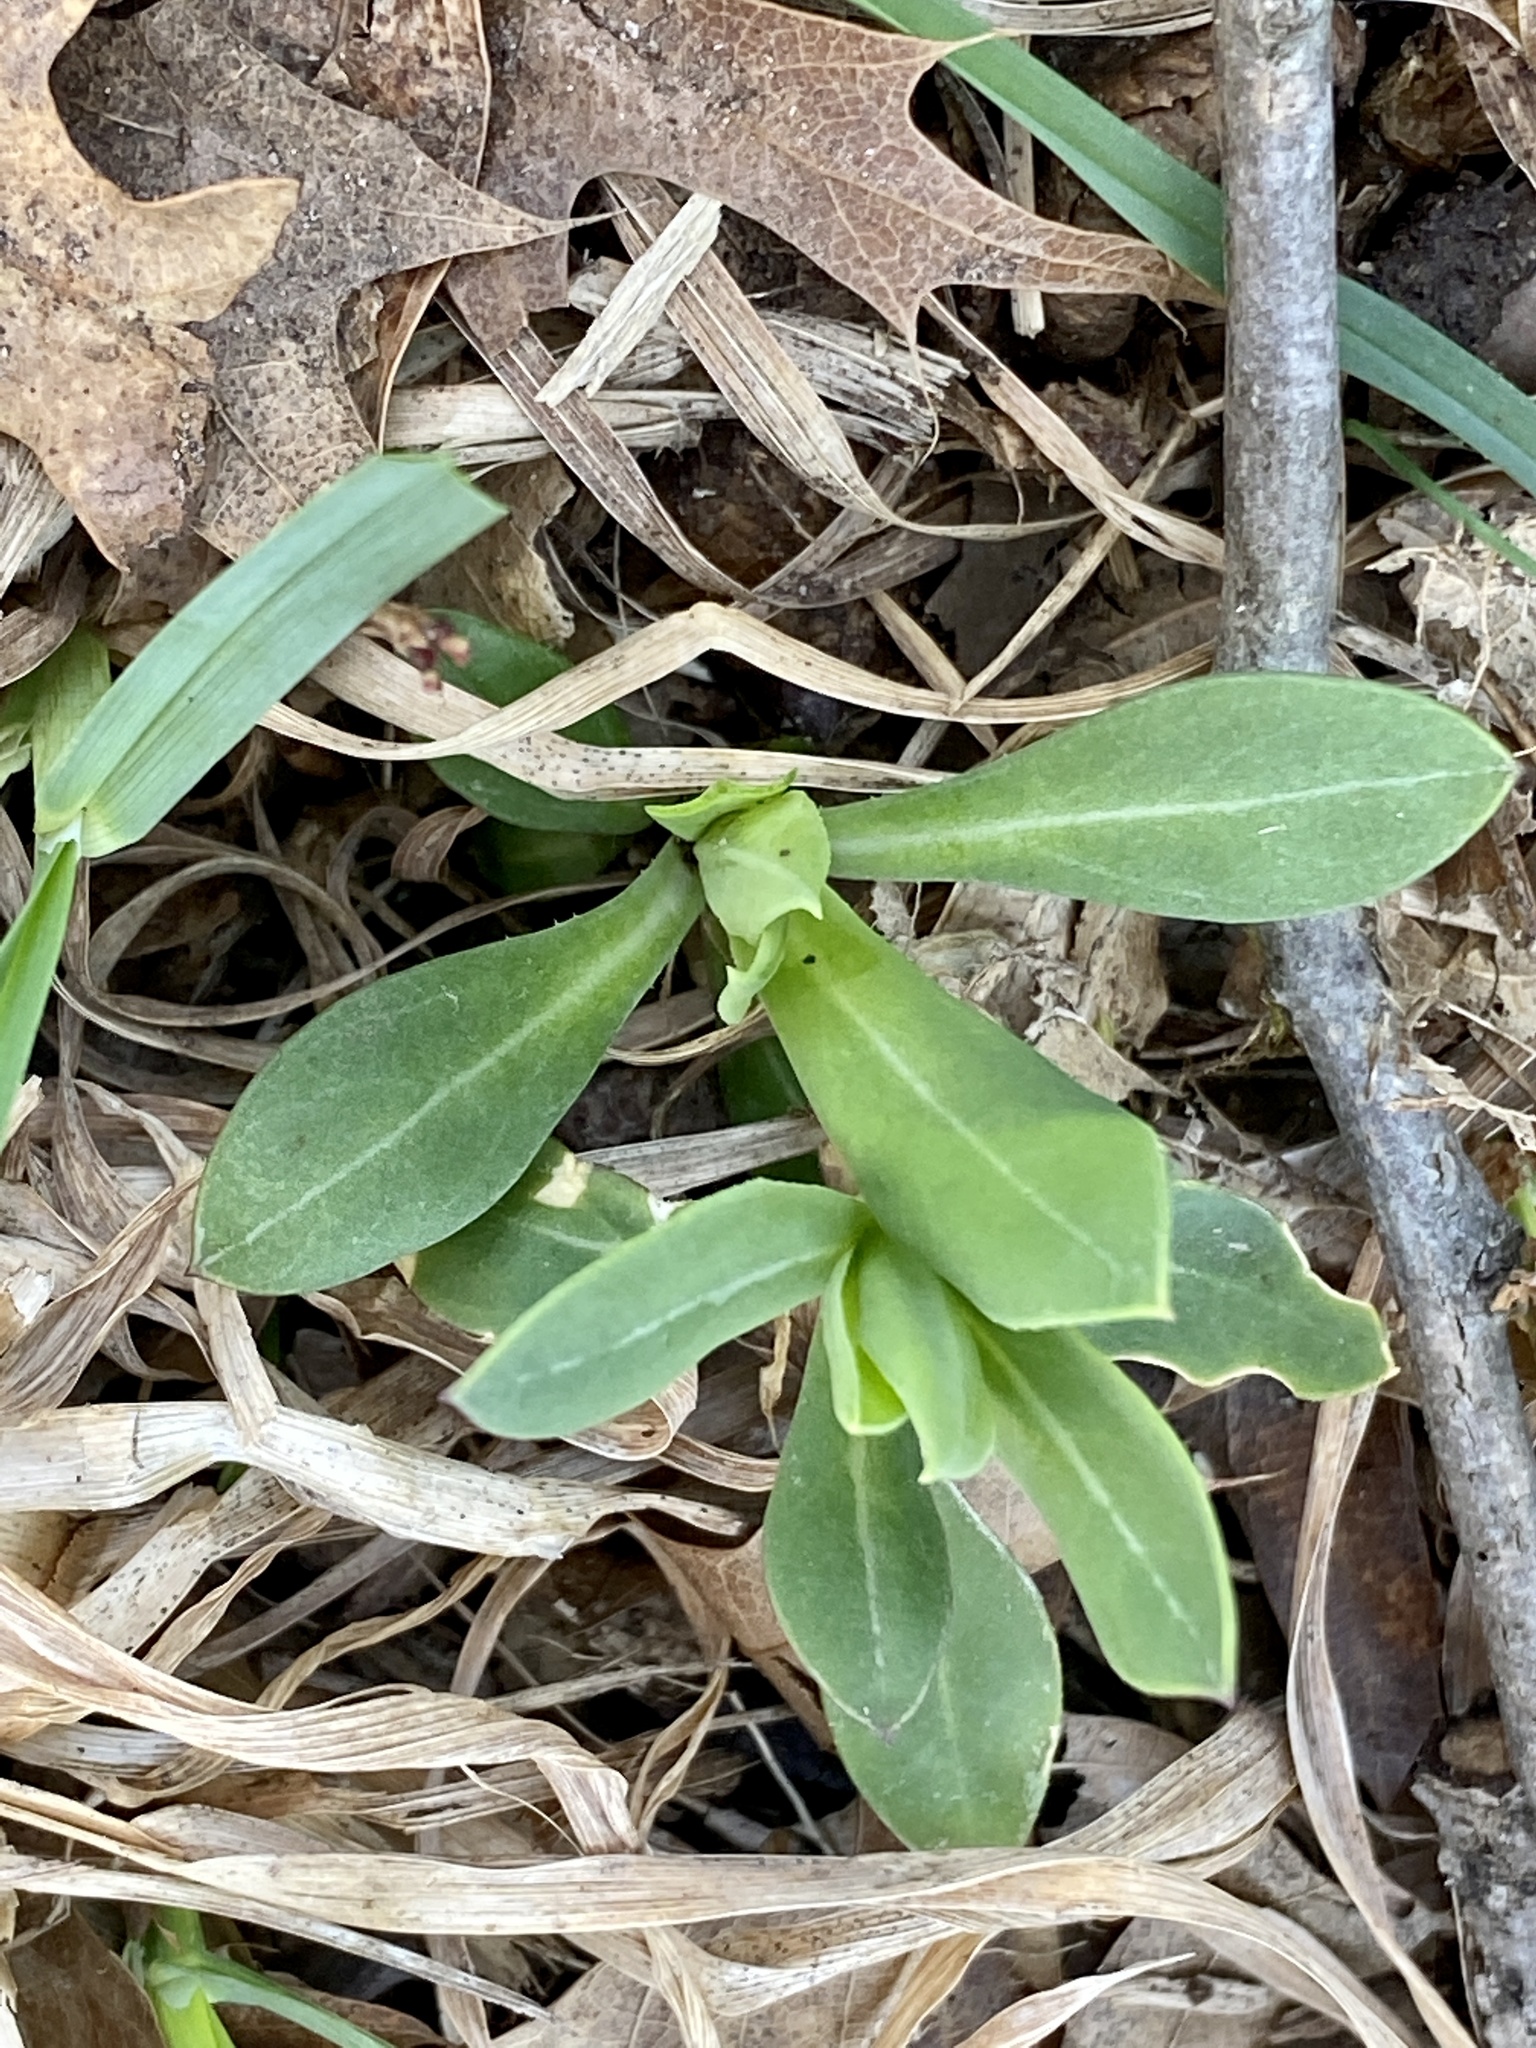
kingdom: Plantae
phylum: Tracheophyta
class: Magnoliopsida
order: Caryophyllales
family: Caryophyllaceae
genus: Silene
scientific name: Silene vulgaris
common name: Bladder campion
